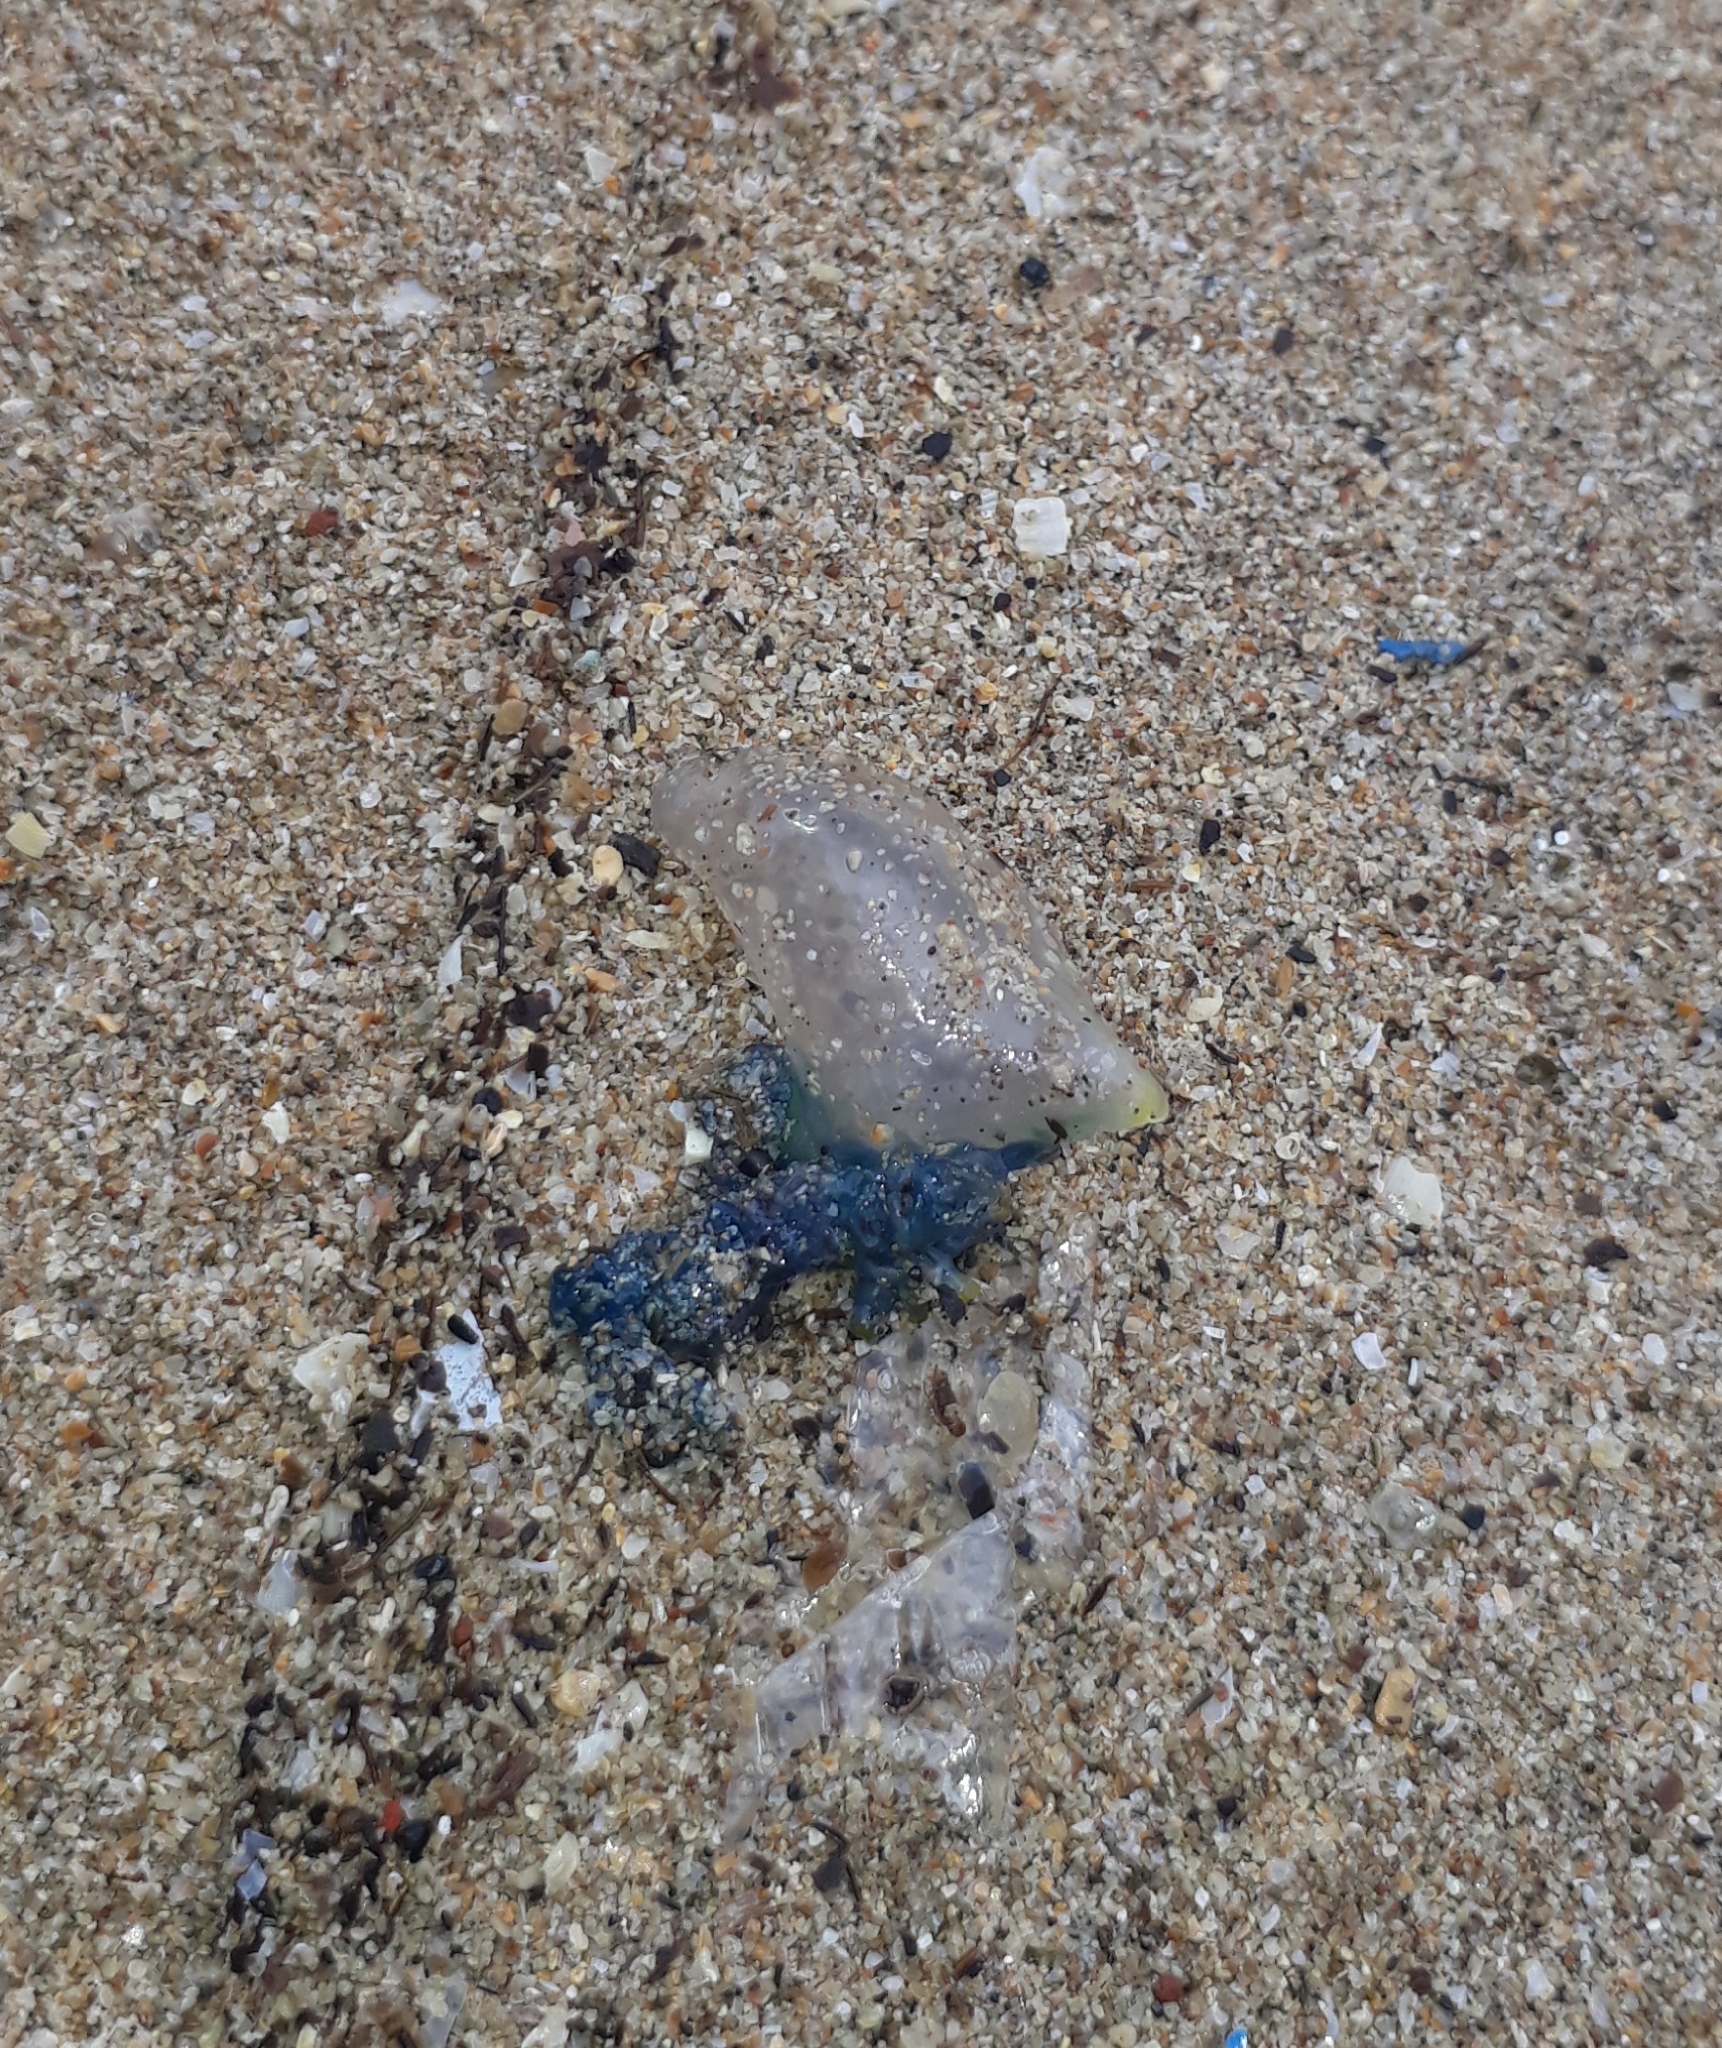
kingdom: Animalia
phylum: Cnidaria
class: Hydrozoa
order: Siphonophorae
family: Physaliidae
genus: Physalia
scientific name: Physalia physalis
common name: Portuguese man-of-war
